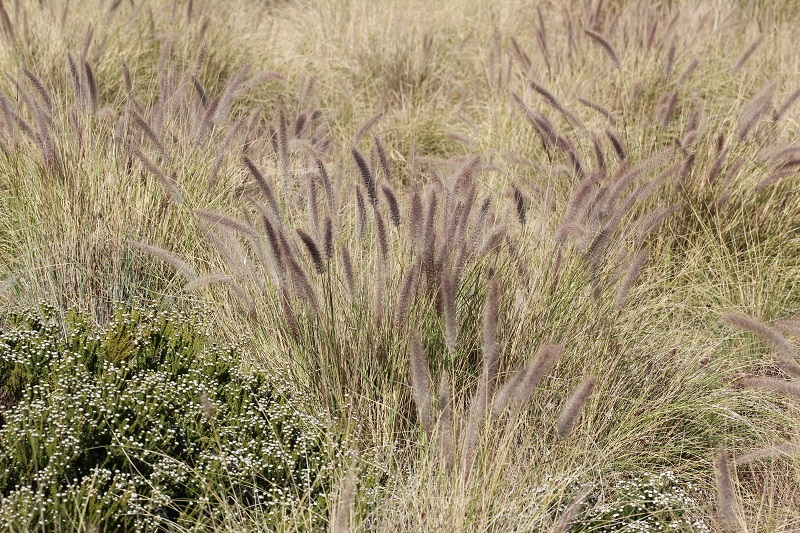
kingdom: Plantae
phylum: Tracheophyta
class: Liliopsida
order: Poales
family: Poaceae
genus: Cenchrus
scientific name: Cenchrus setaceus
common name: Crimson fountaingrass
